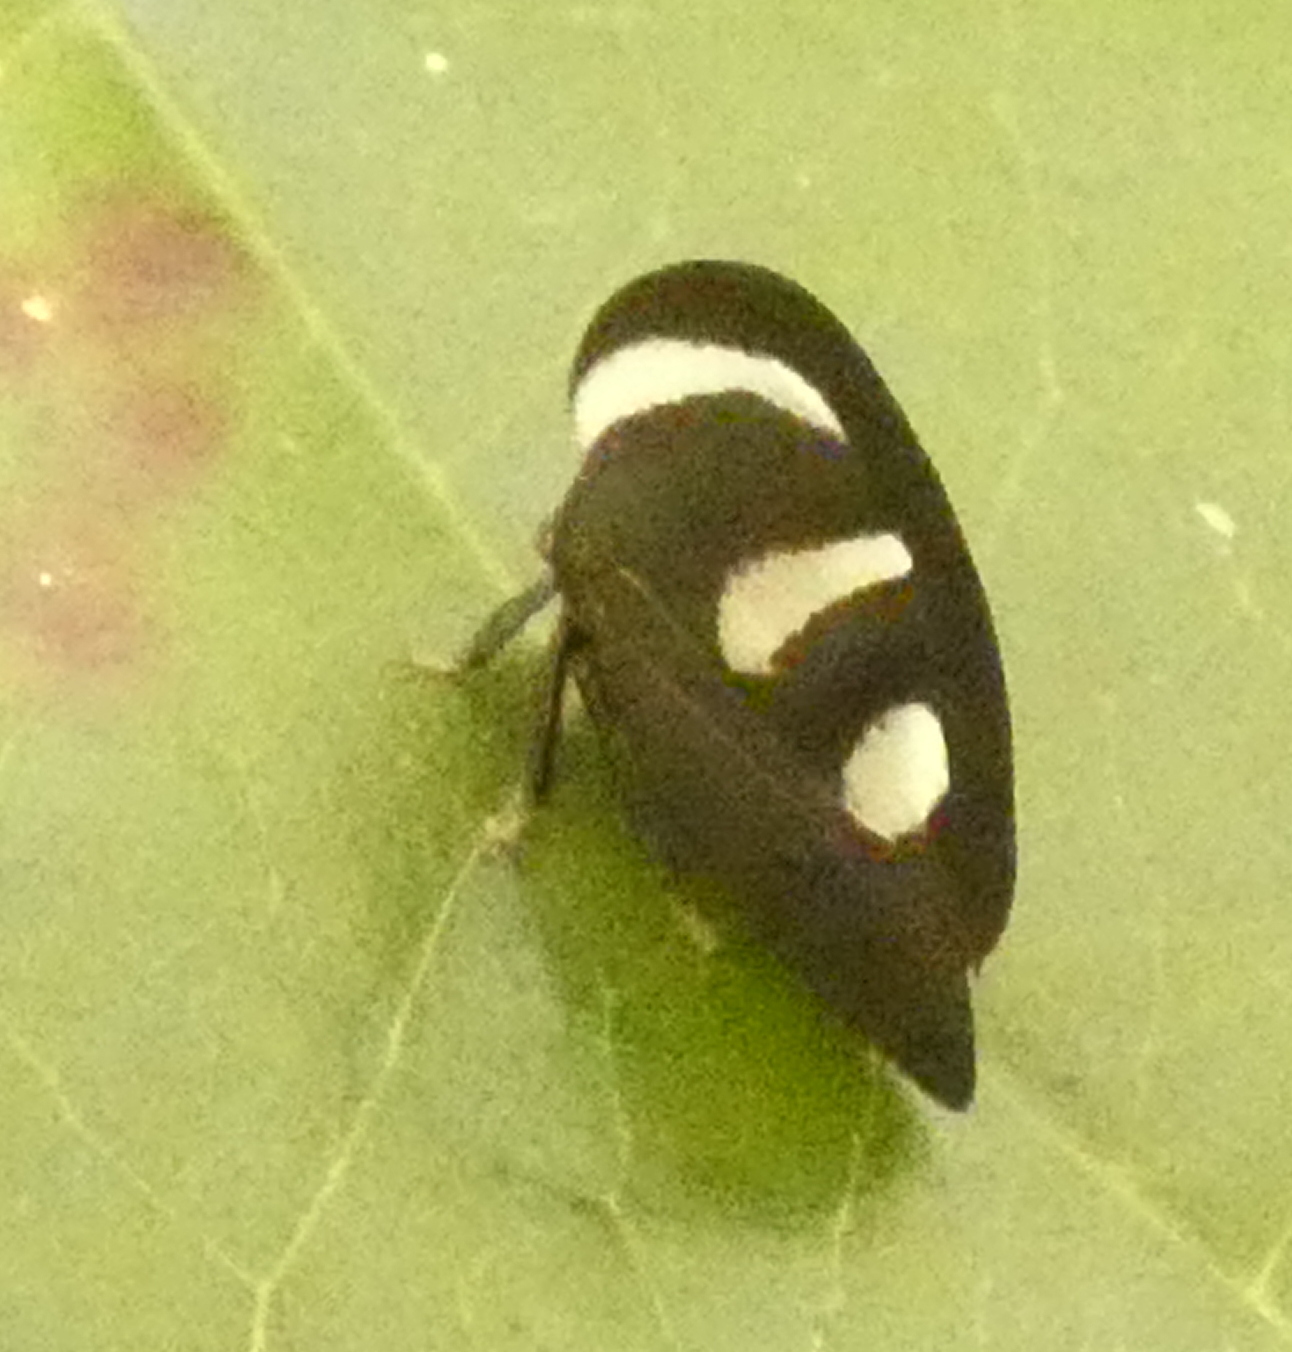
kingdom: Animalia
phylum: Arthropoda
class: Insecta
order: Hemiptera
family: Membracidae
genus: Membracis
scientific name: Membracis
